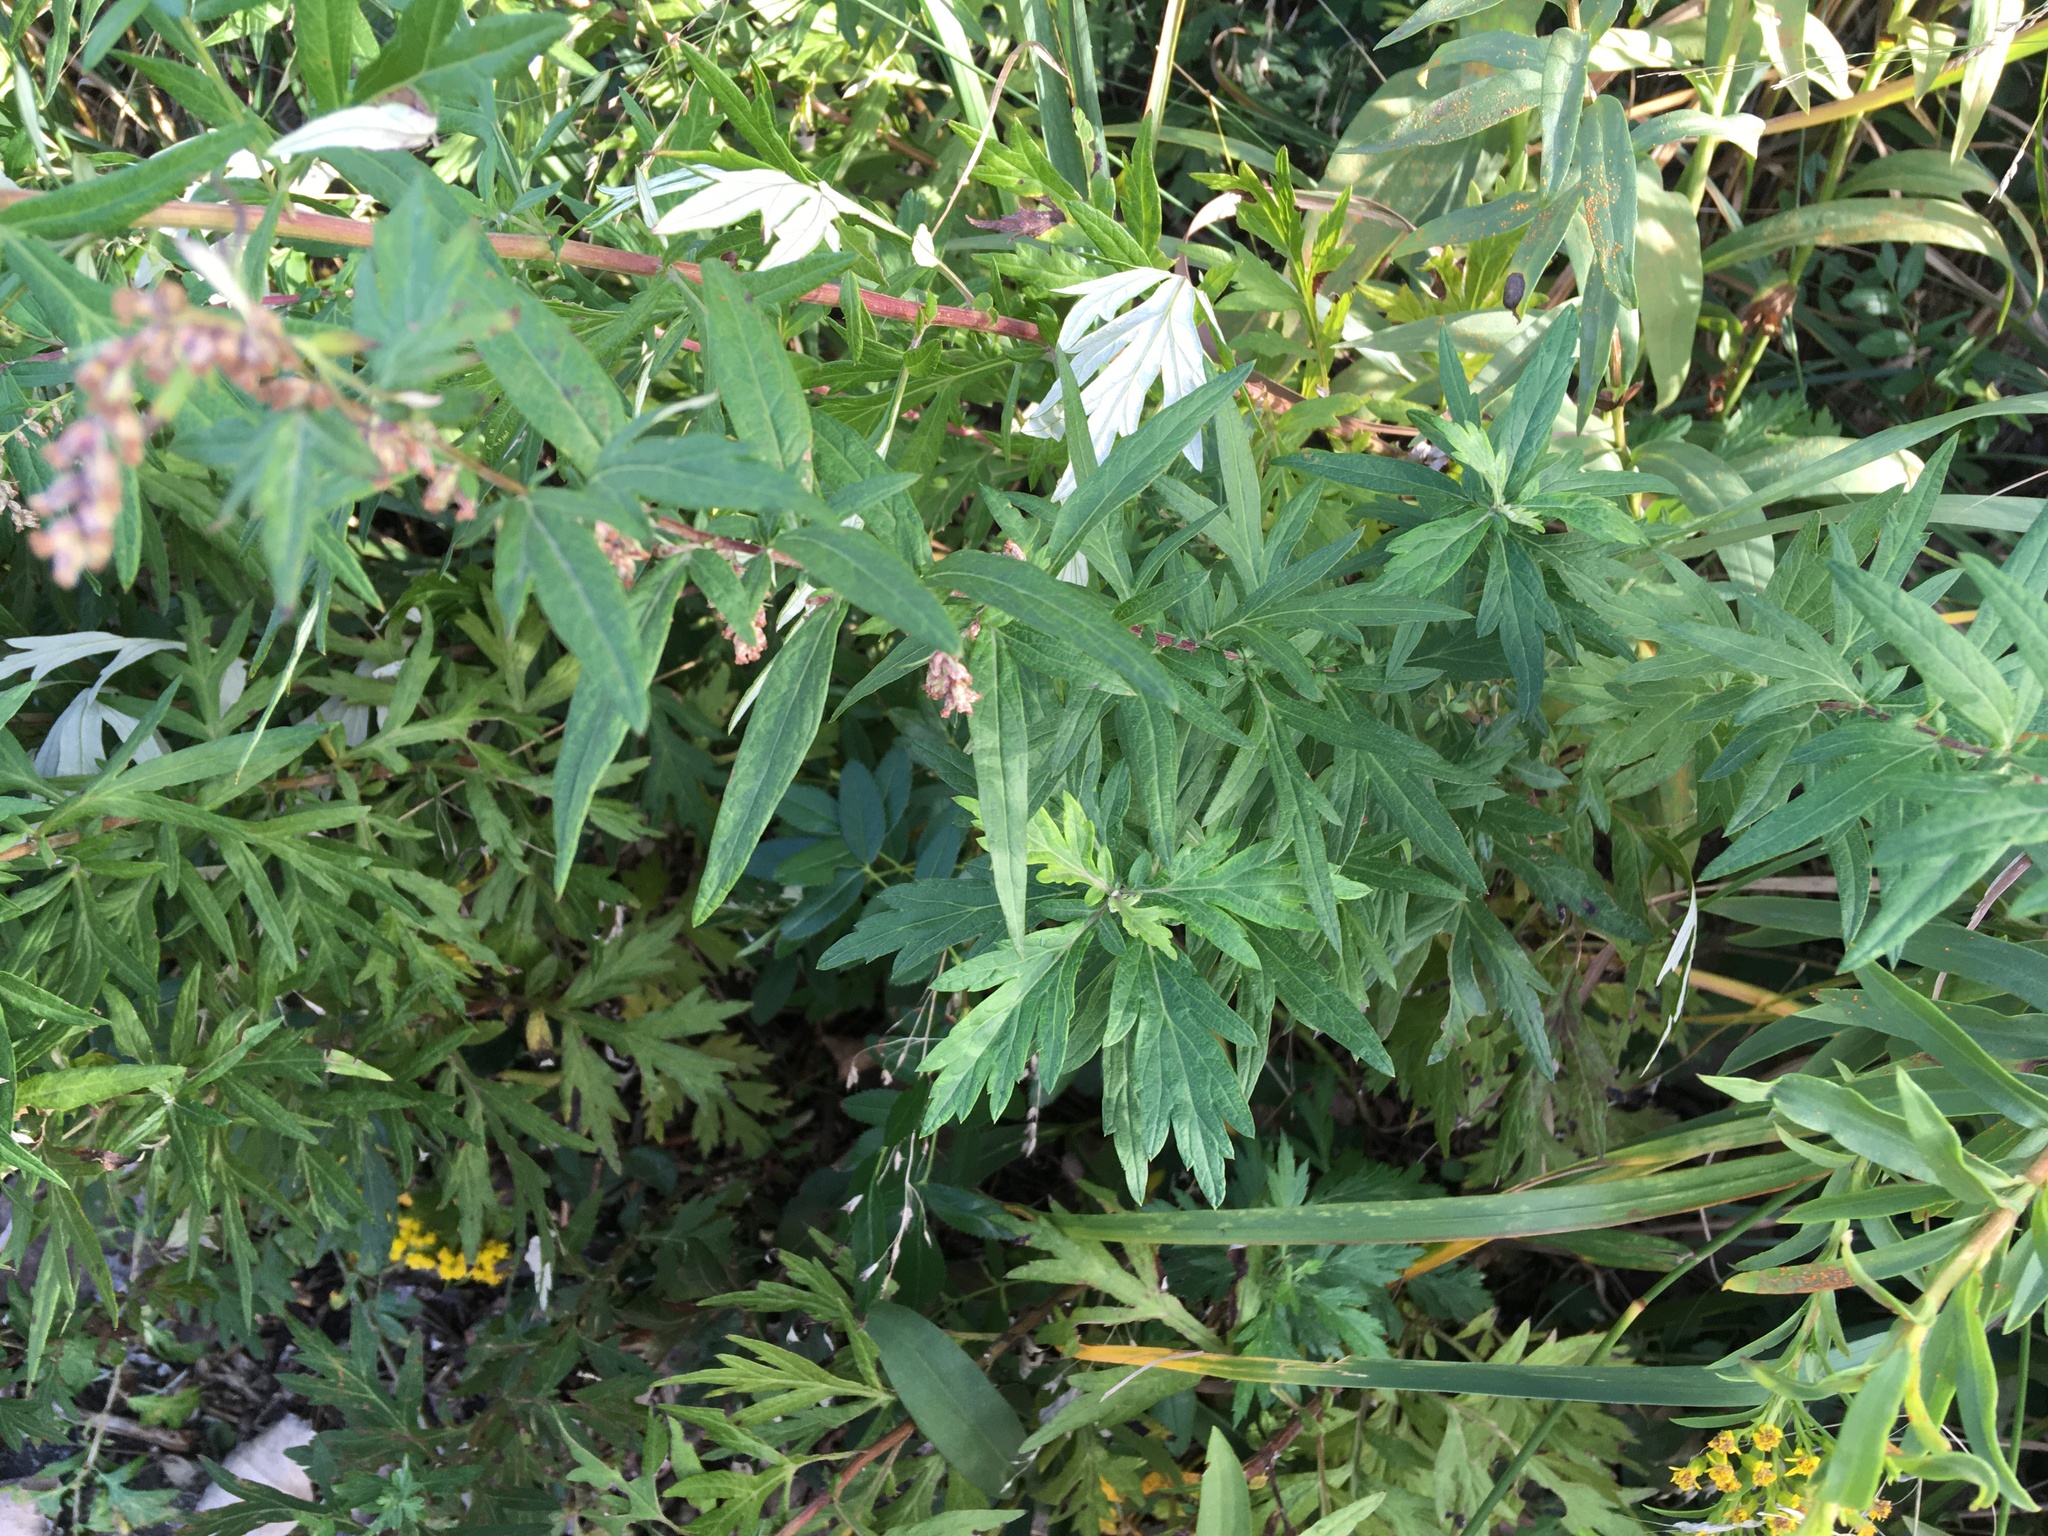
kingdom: Plantae
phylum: Tracheophyta
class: Magnoliopsida
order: Asterales
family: Asteraceae
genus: Artemisia
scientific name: Artemisia vulgaris
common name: Mugwort
